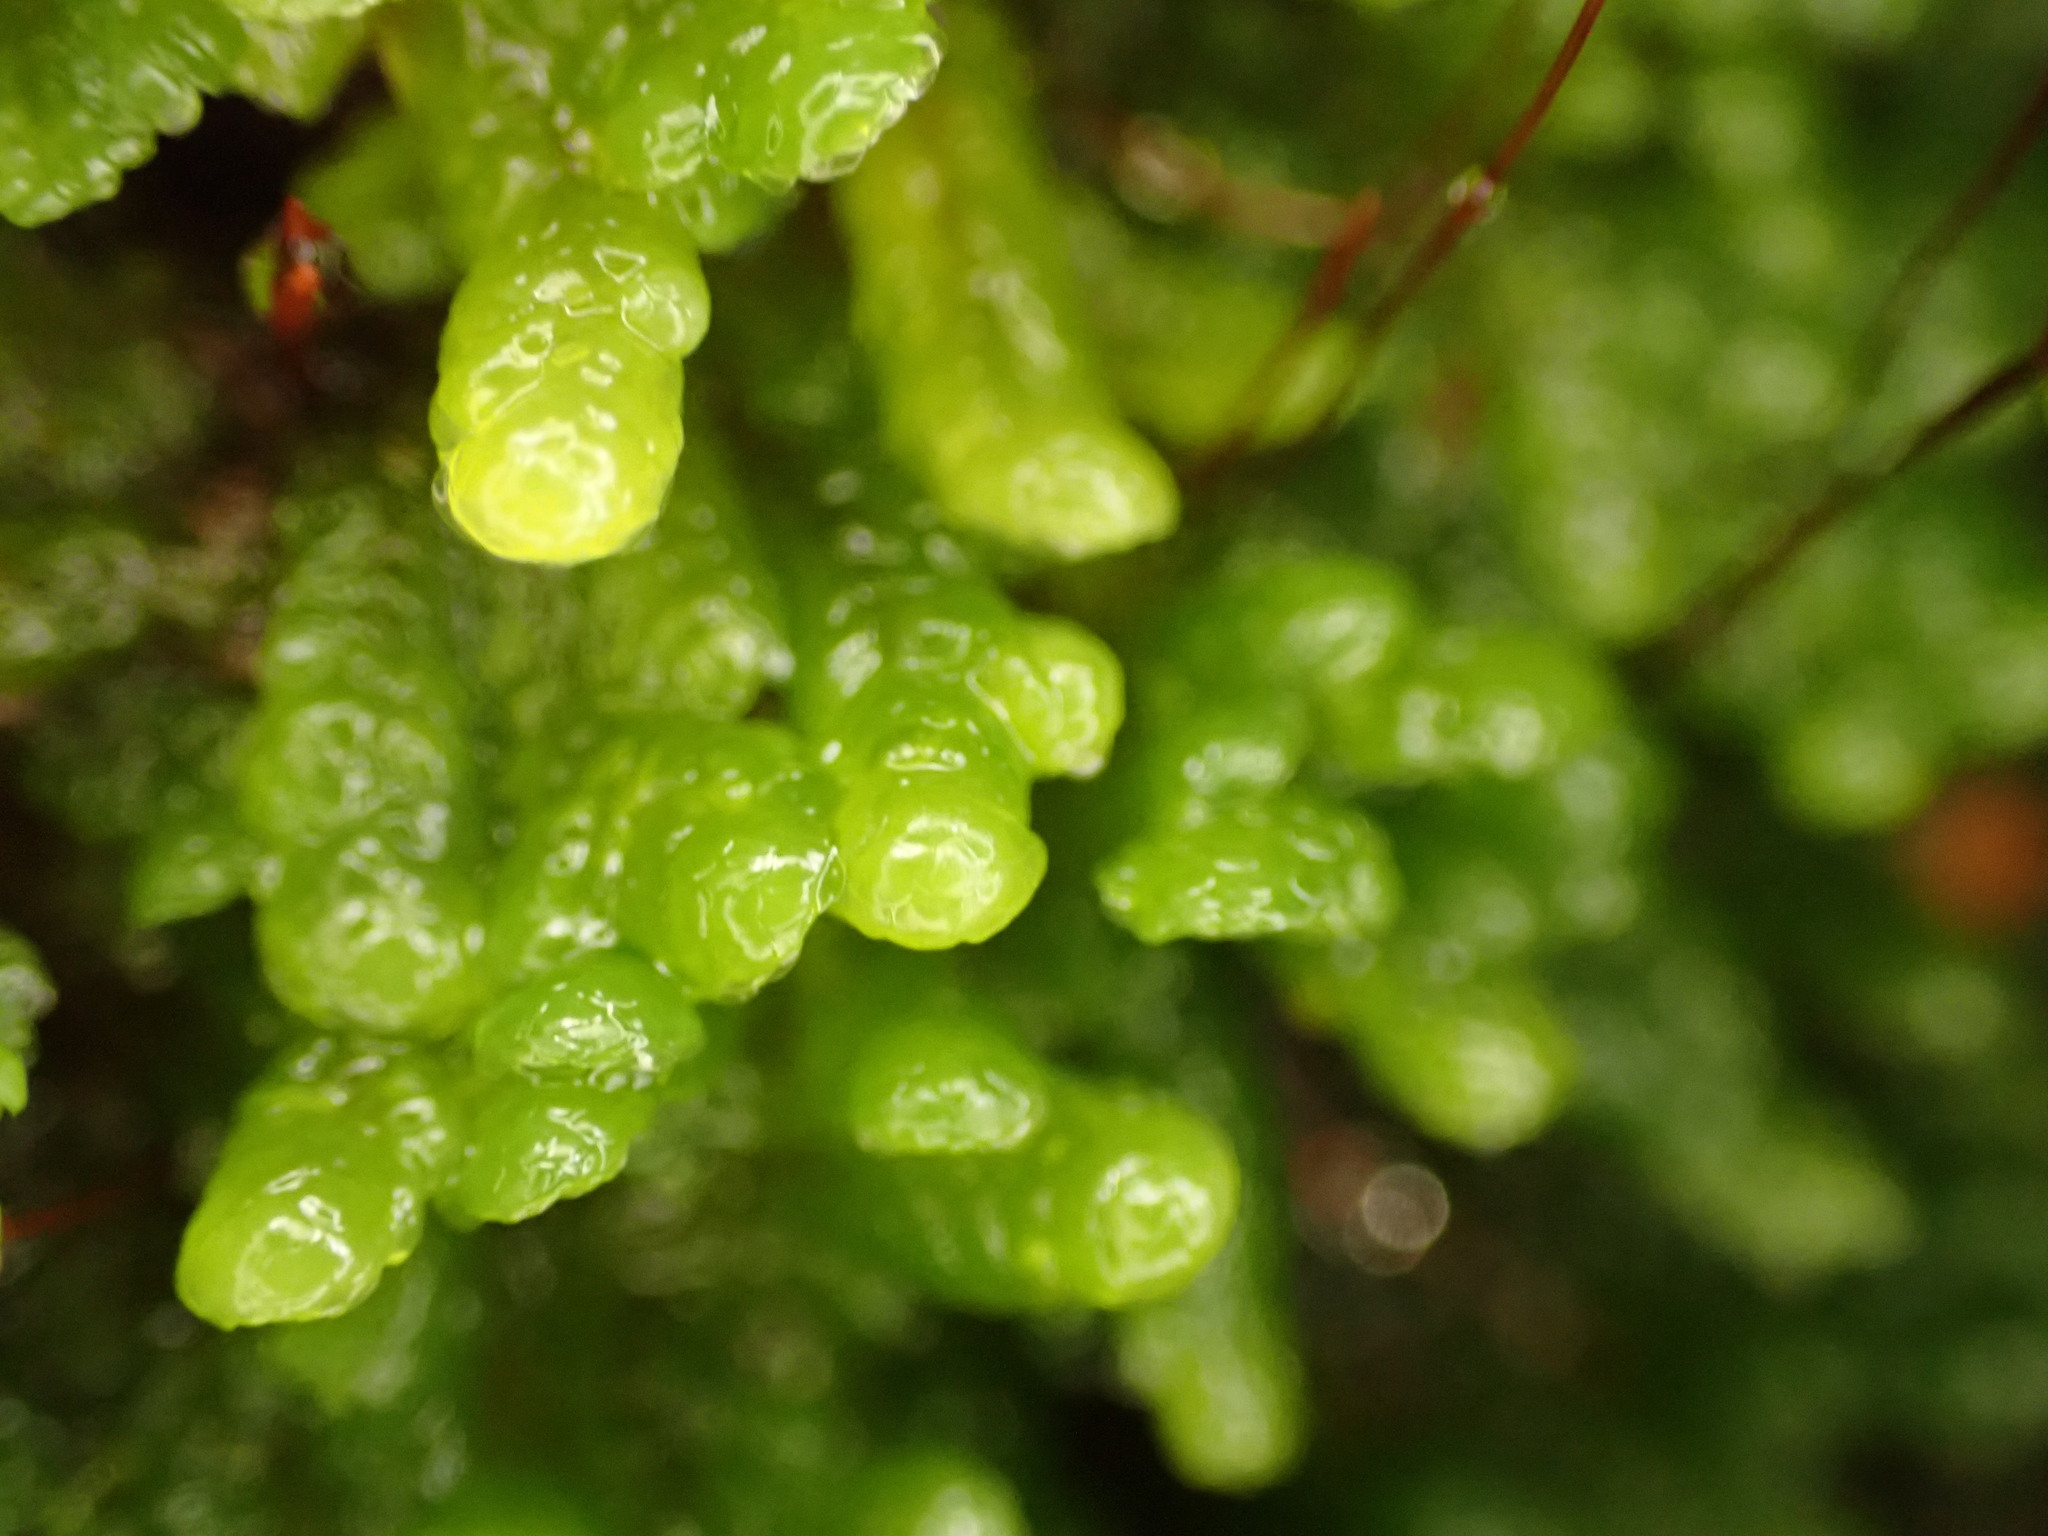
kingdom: Plantae
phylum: Bryophyta
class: Bryopsida
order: Hookeriales
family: Daltoniaceae
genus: Distichophyllum
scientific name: Distichophyllum pulchellum
